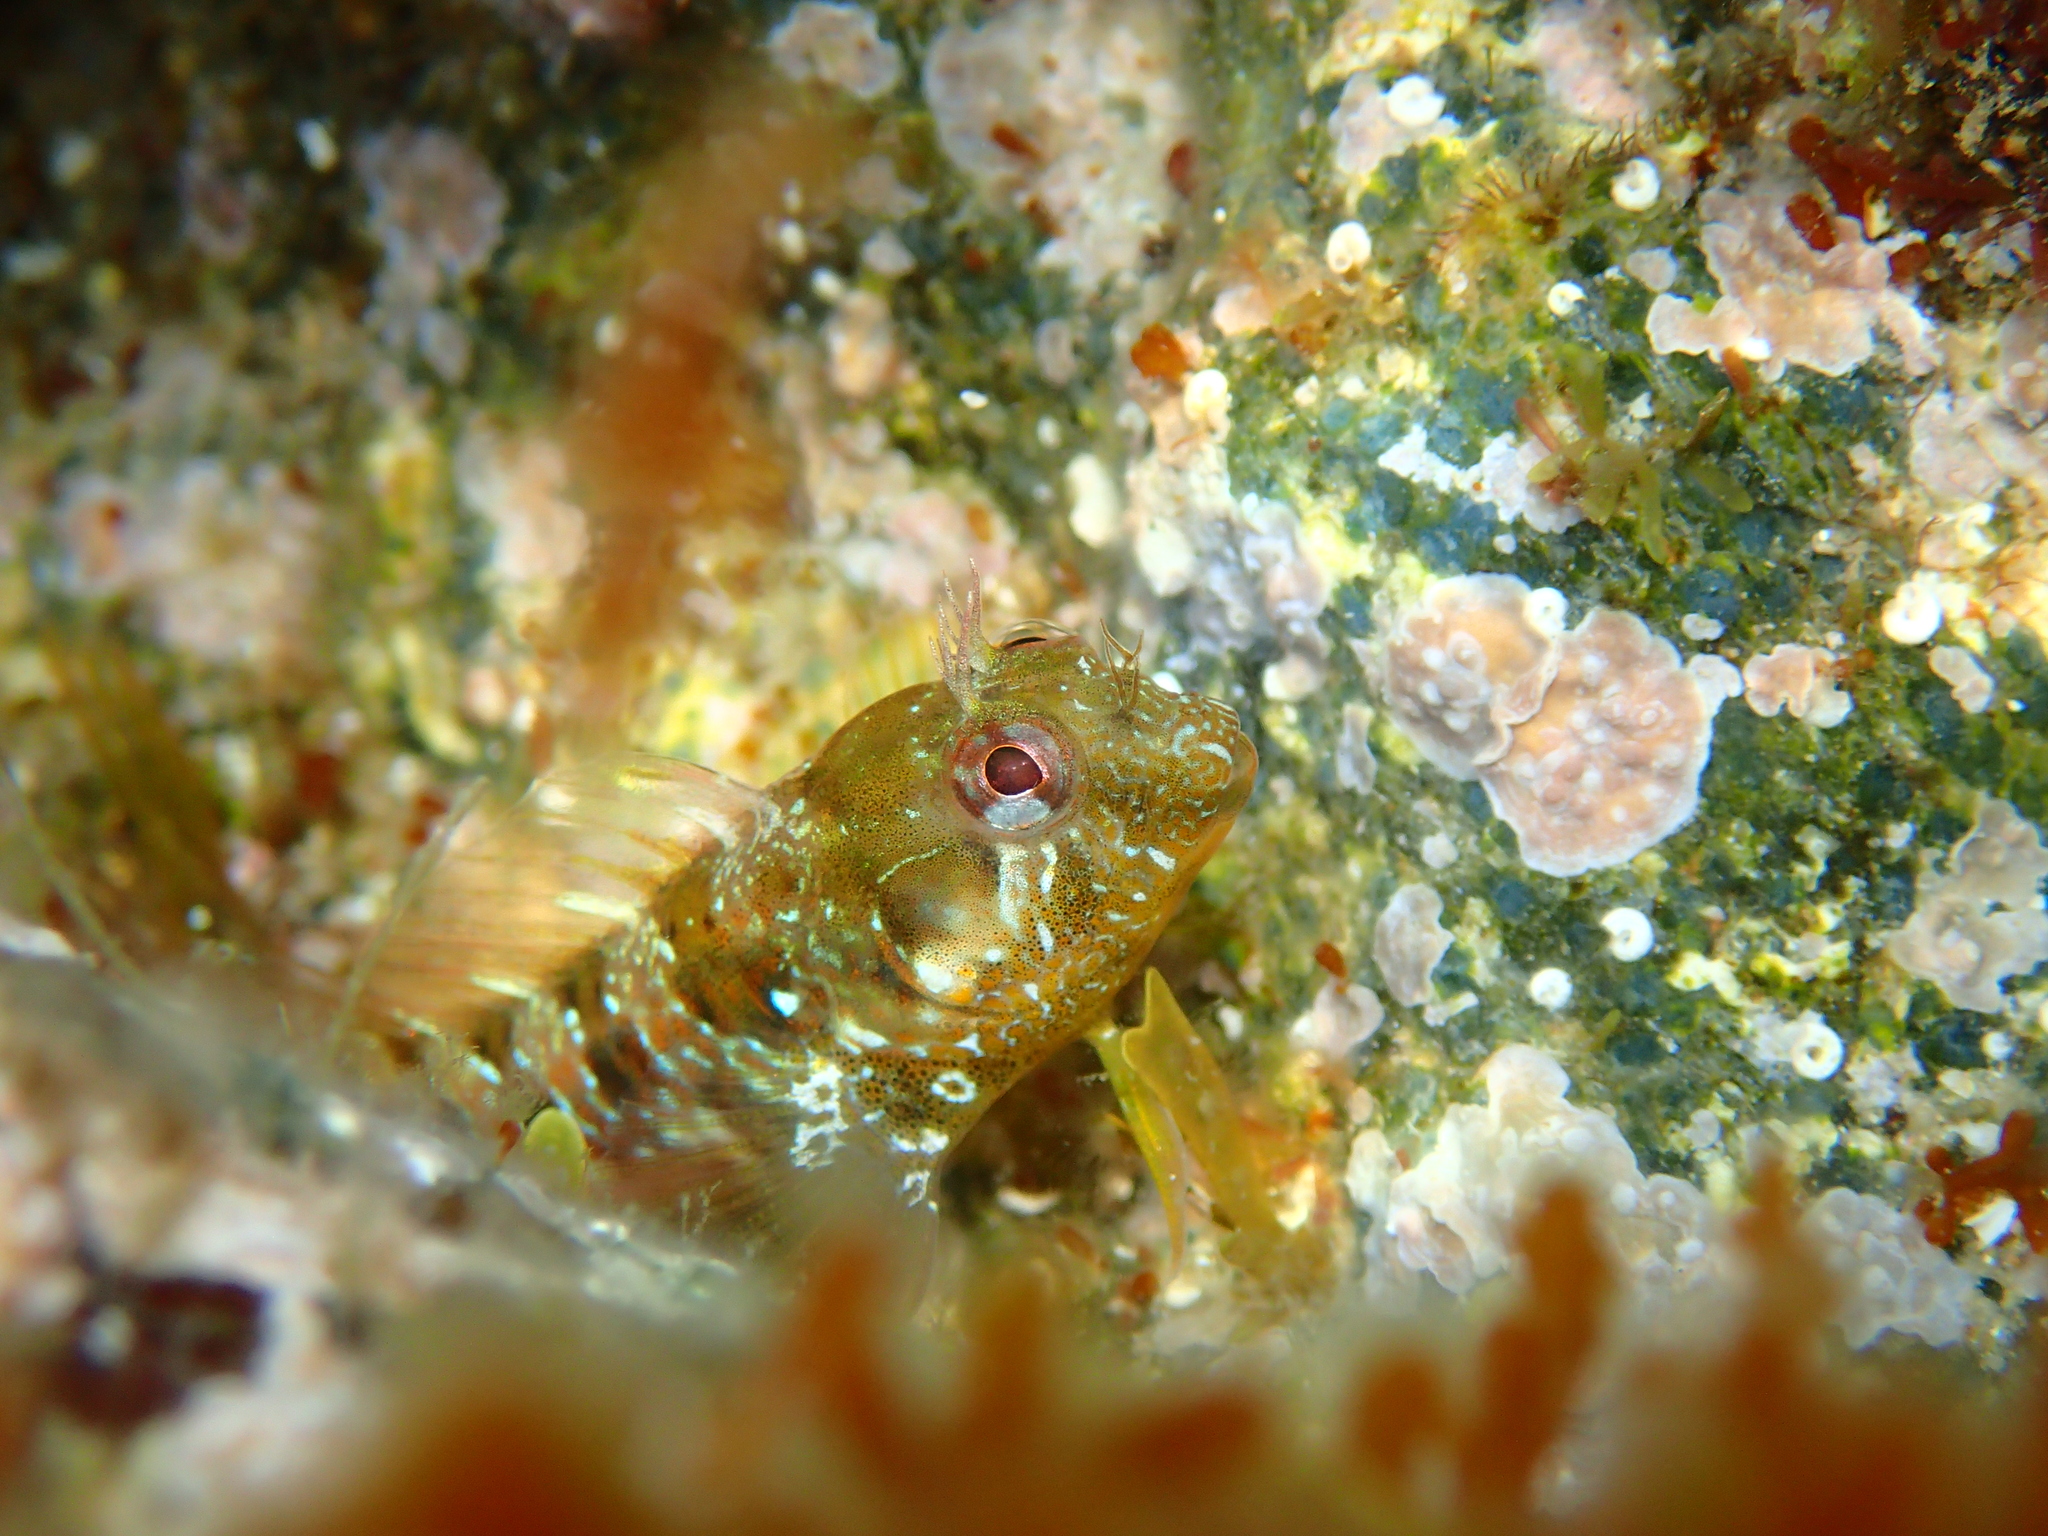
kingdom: Animalia
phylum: Chordata
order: Perciformes
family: Blenniidae
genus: Parablennius
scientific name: Parablennius incognitus
